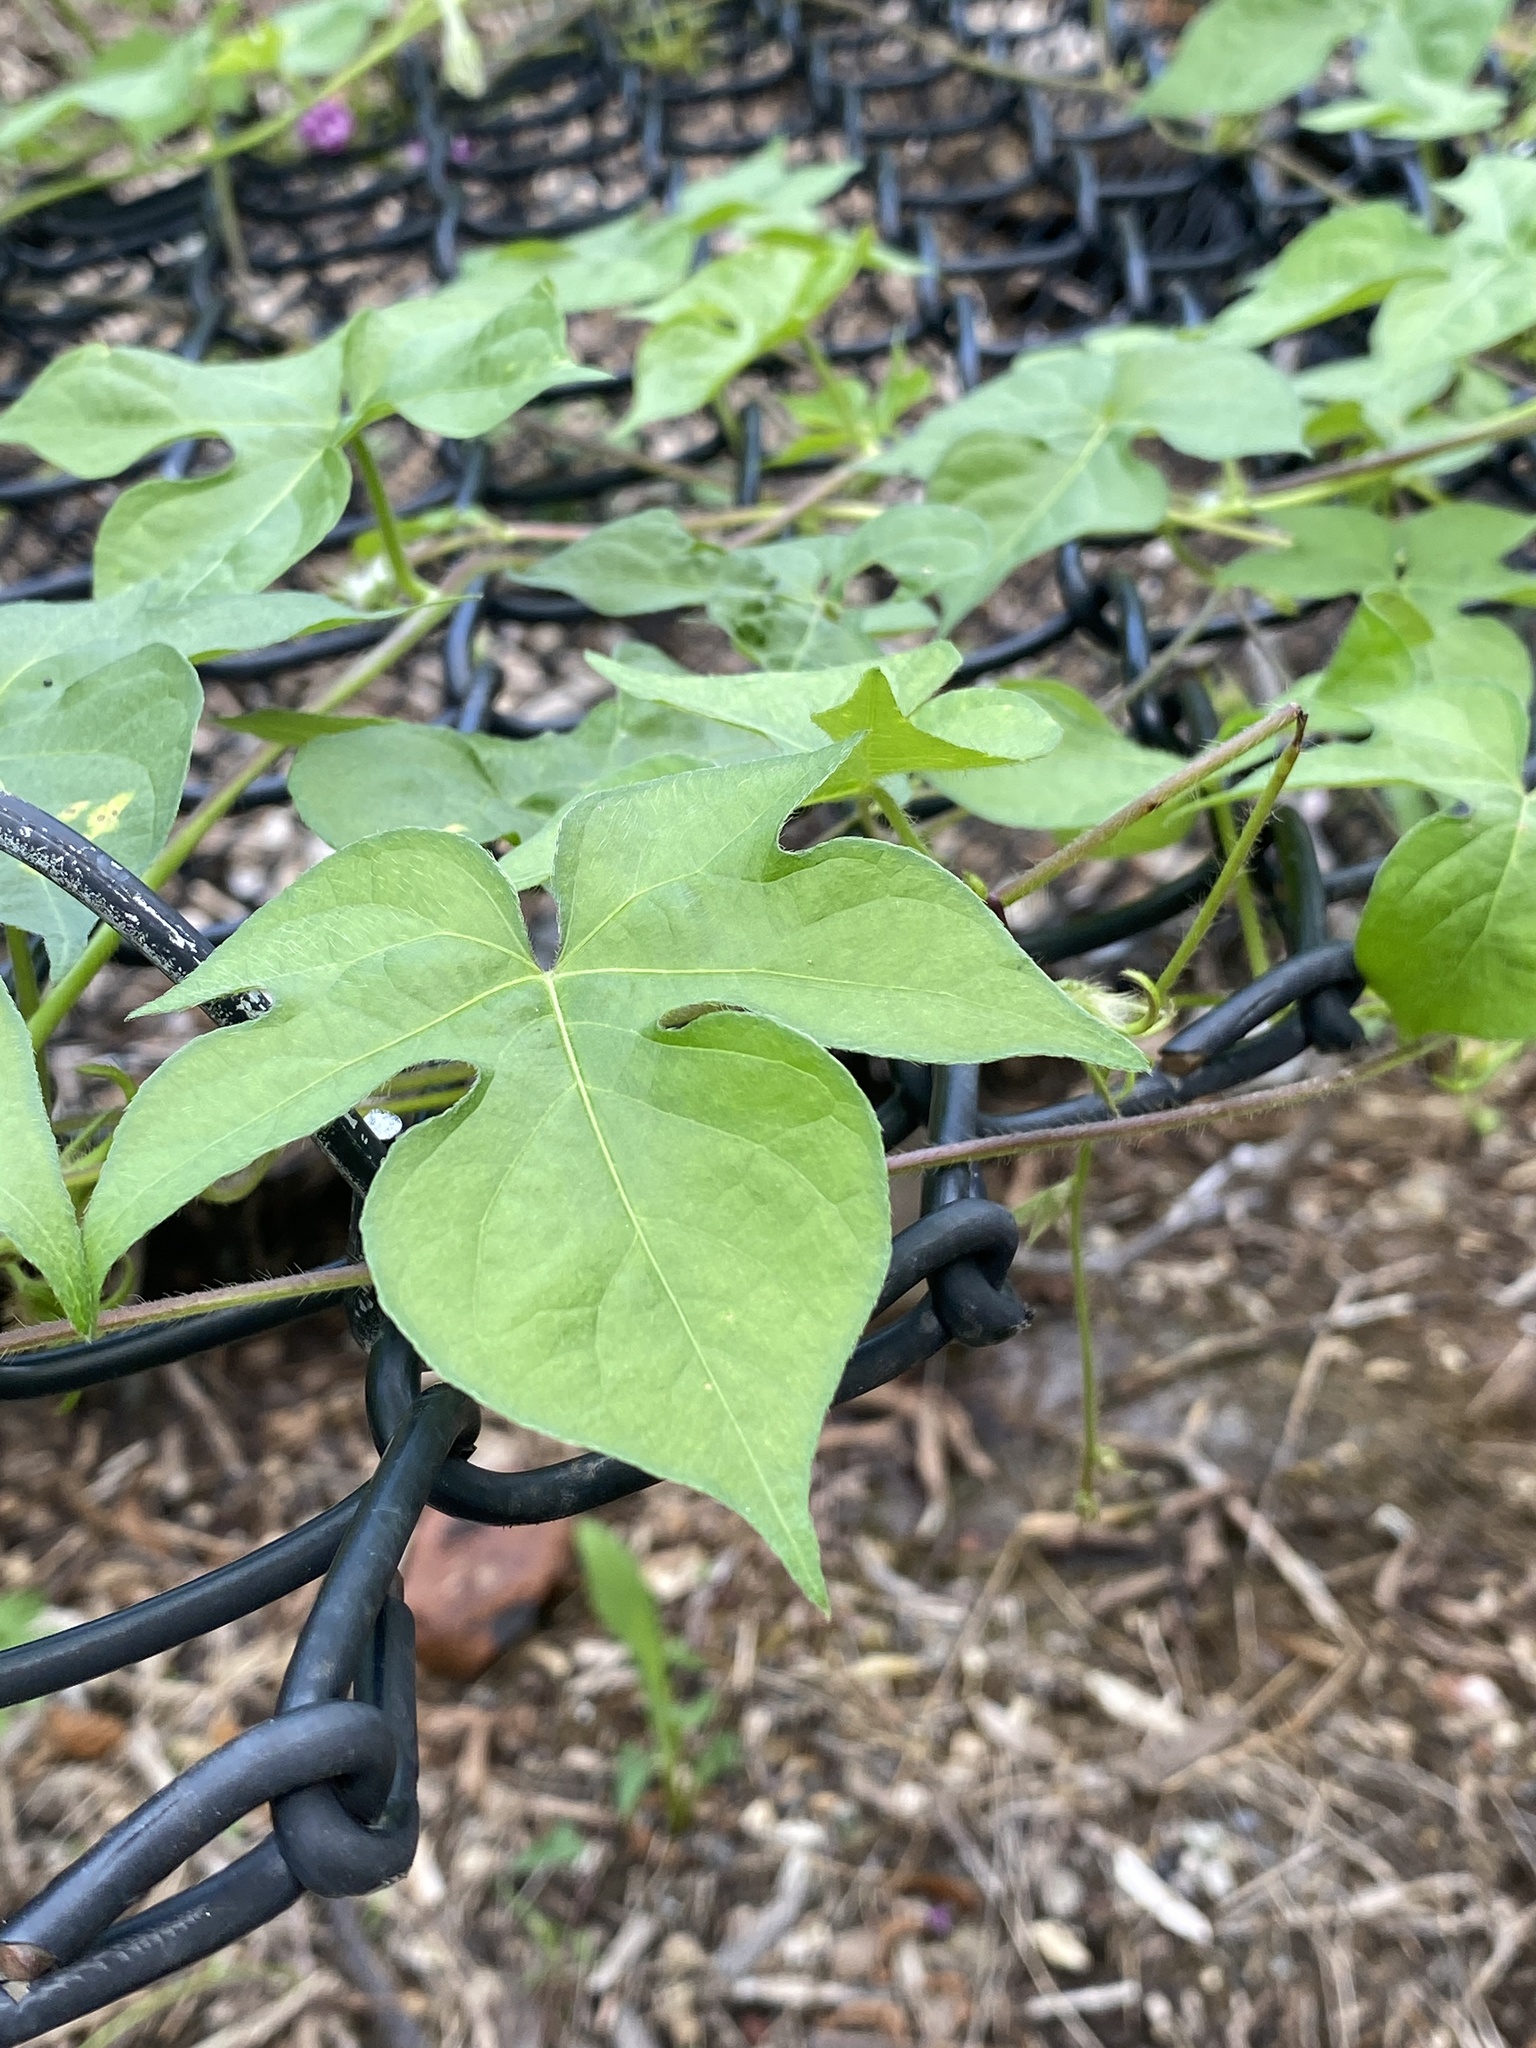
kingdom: Plantae
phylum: Tracheophyta
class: Magnoliopsida
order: Solanales
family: Convolvulaceae
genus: Ipomoea
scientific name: Ipomoea hederacea
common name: Ivy-leaved morning-glory
